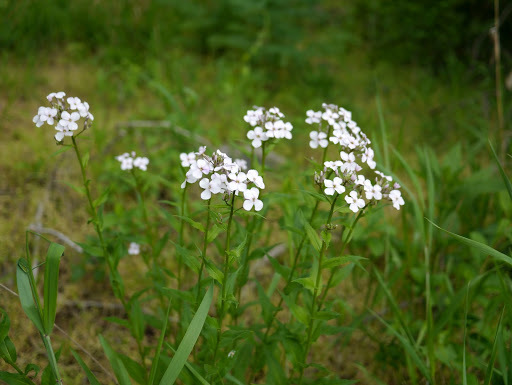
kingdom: Plantae
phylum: Tracheophyta
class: Magnoliopsida
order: Brassicales
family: Brassicaceae
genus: Hesperis
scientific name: Hesperis matronalis
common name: Dame's-violet
